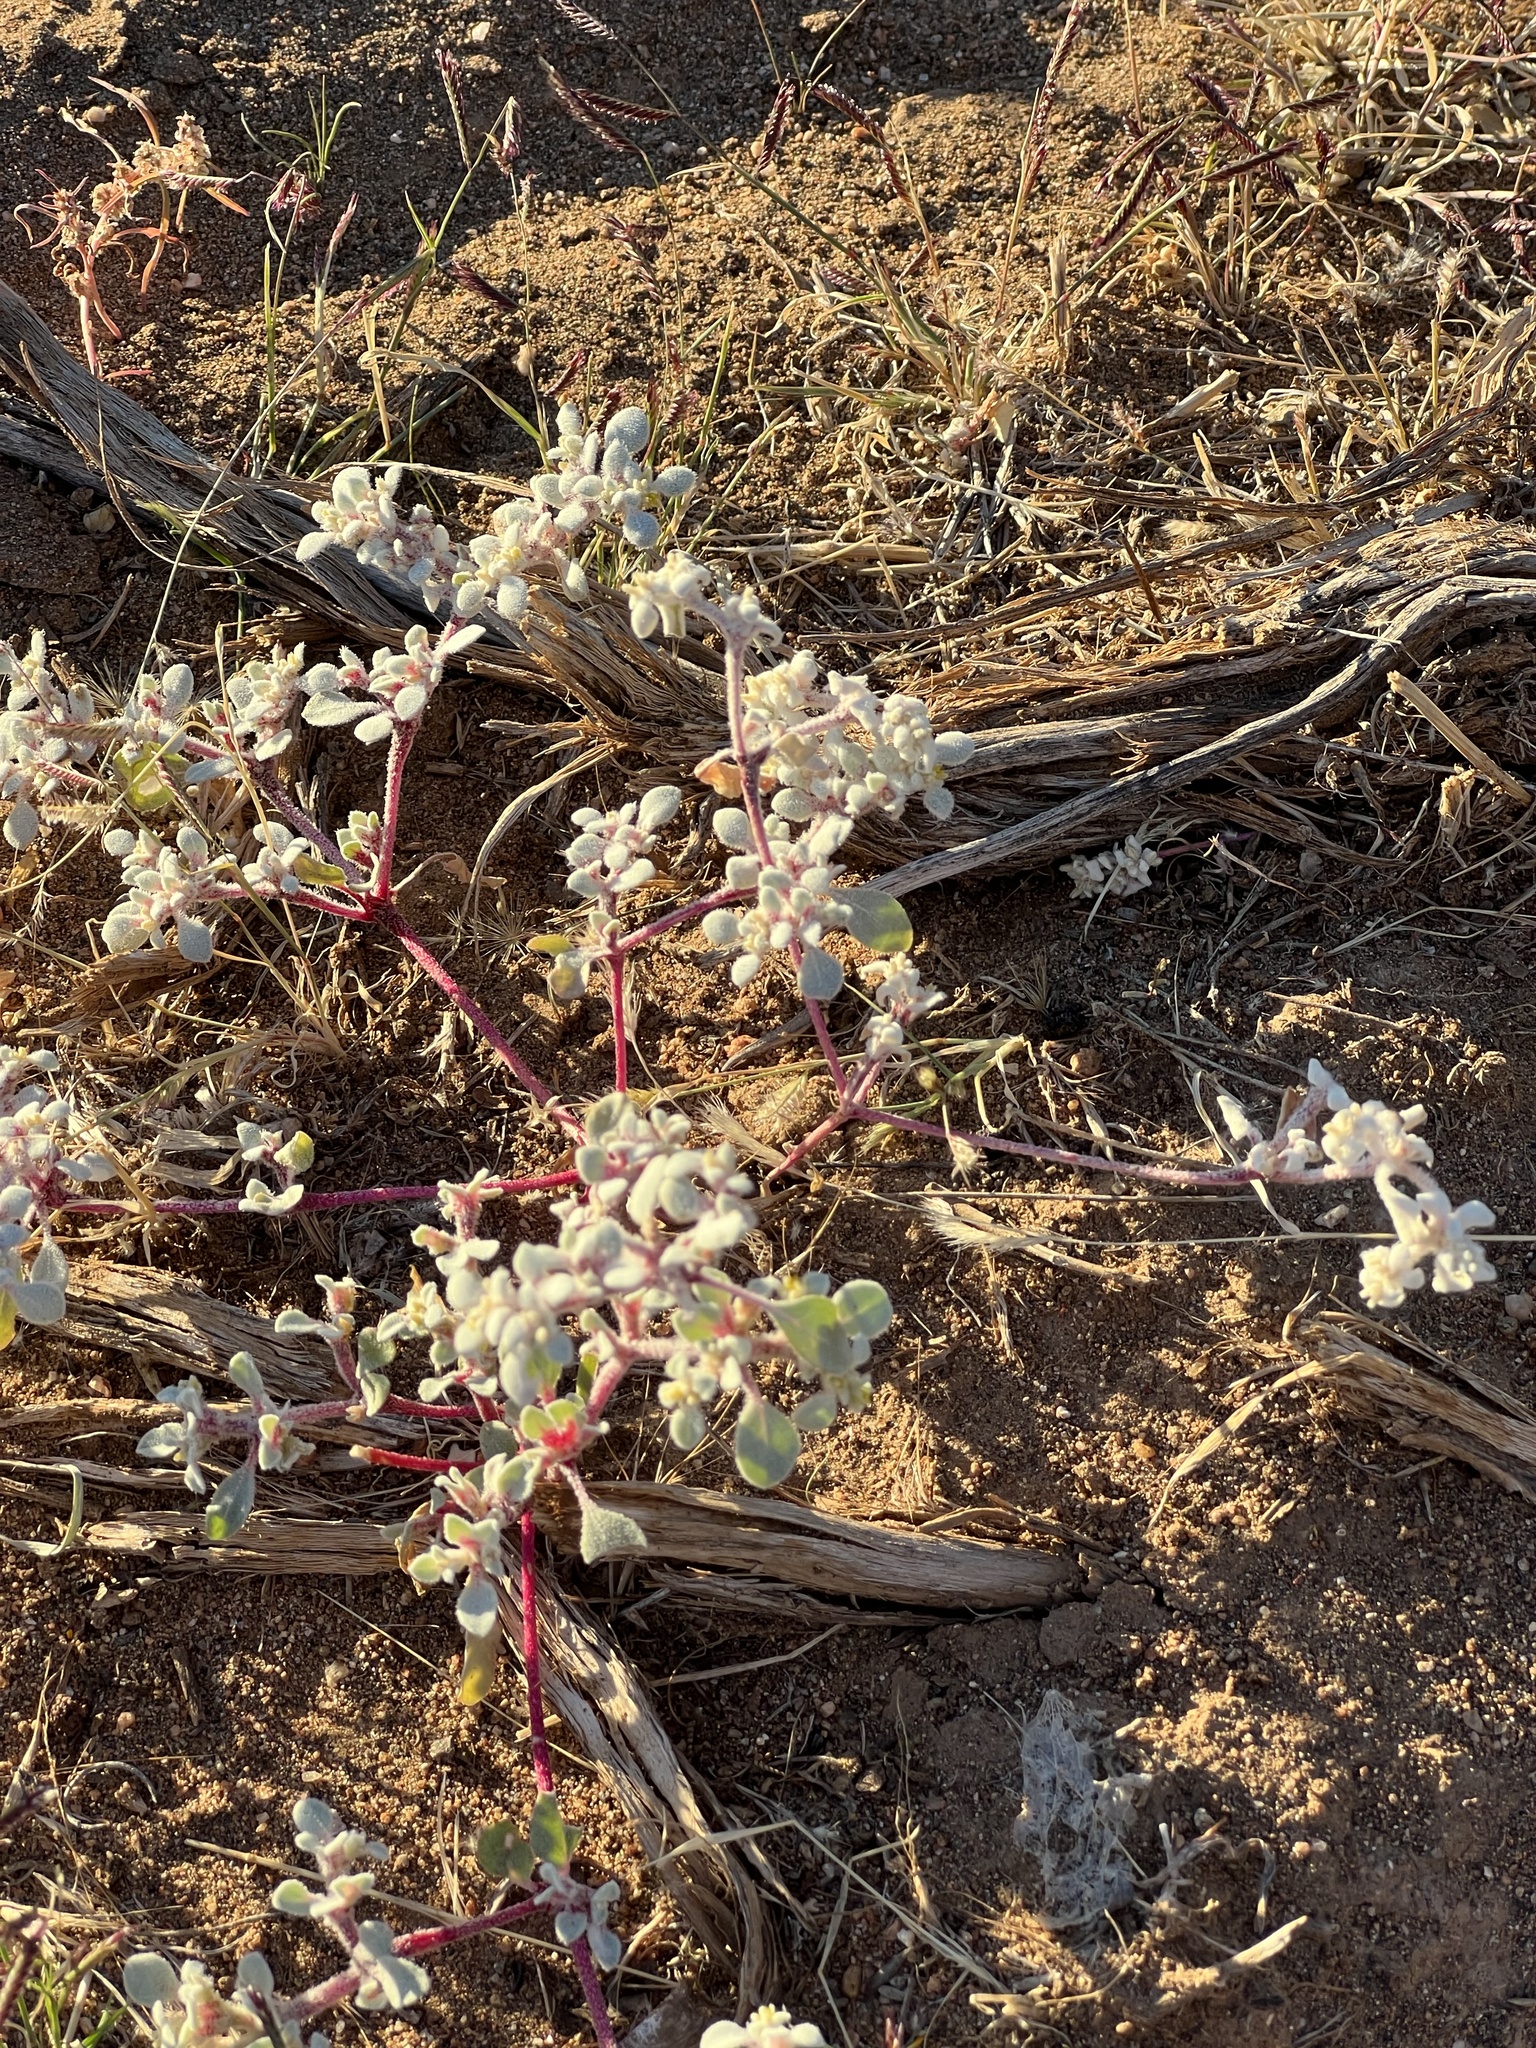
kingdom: Plantae
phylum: Tracheophyta
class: Magnoliopsida
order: Caryophyllales
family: Amaranthaceae
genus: Tidestromia
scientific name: Tidestromia lanuginosa
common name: Woolly tidestromia
